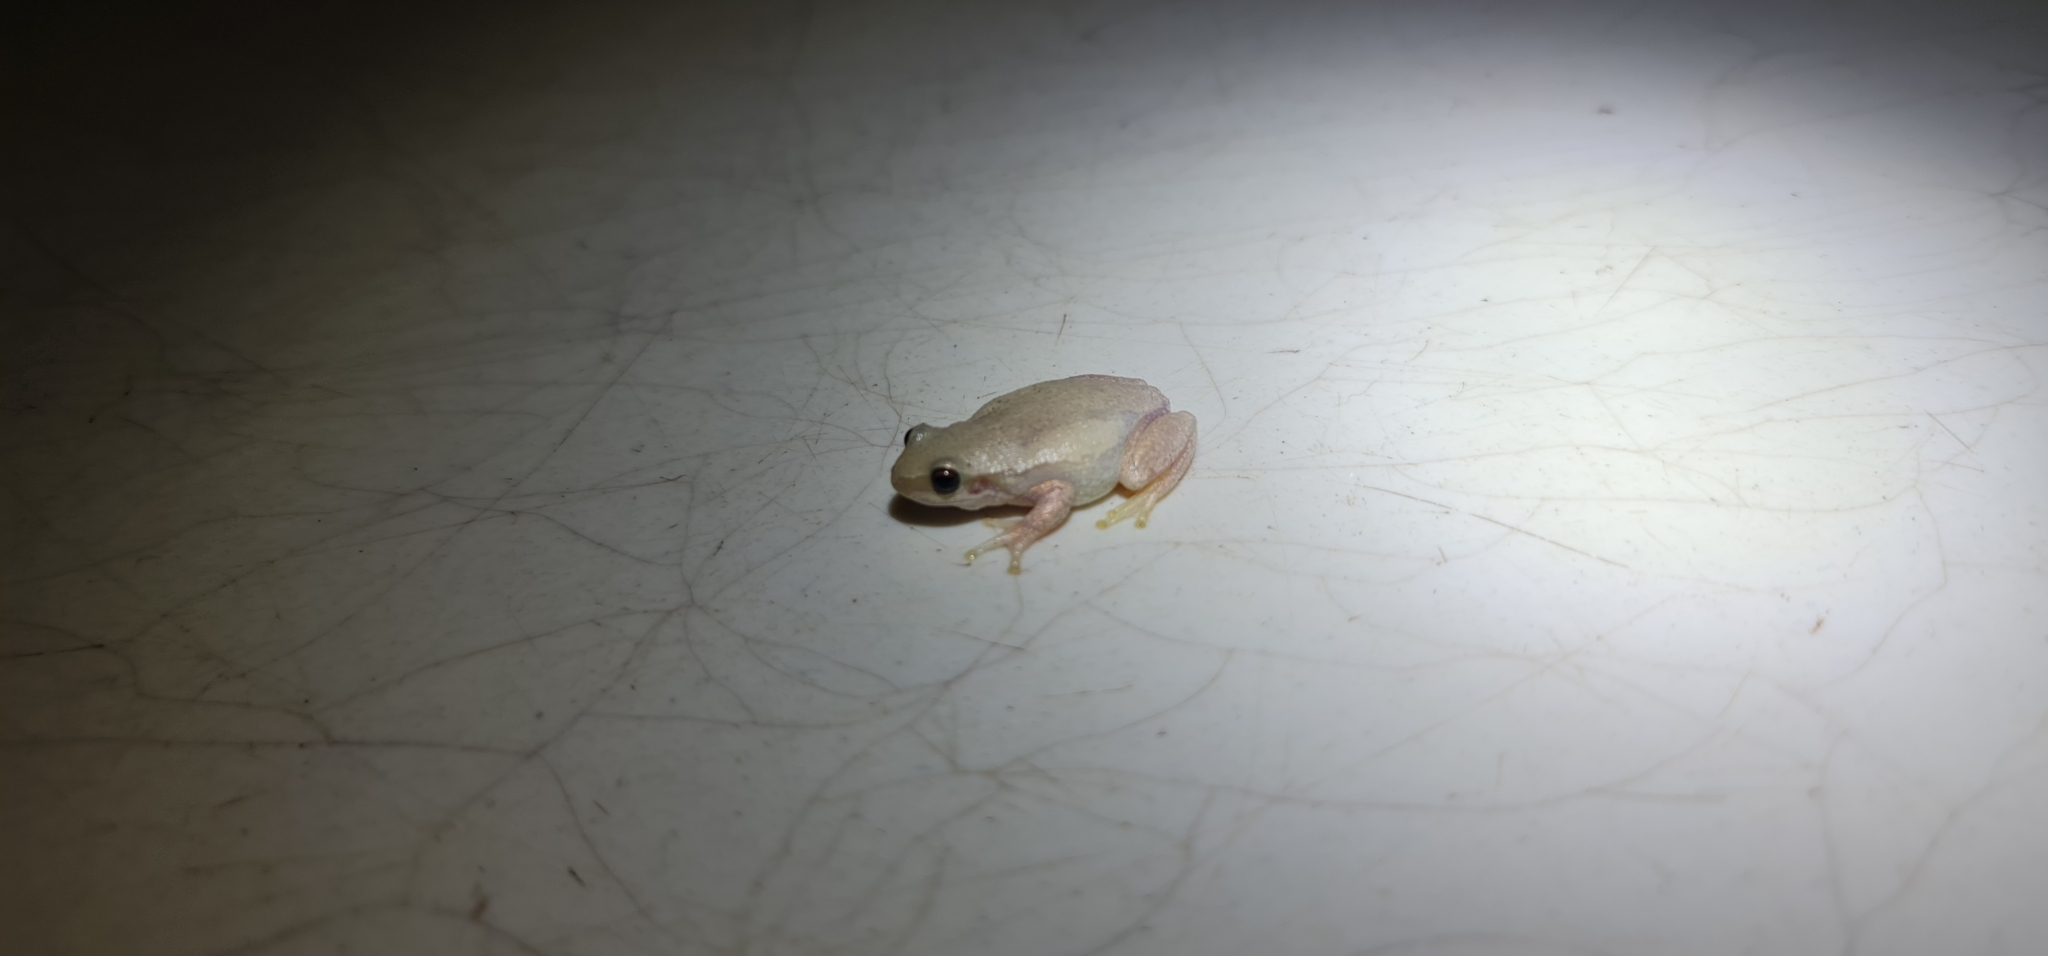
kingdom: Animalia
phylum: Chordata
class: Amphibia
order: Anura
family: Pelodryadidae
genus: Litoria
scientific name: Litoria rubella
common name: Desert tree frog
